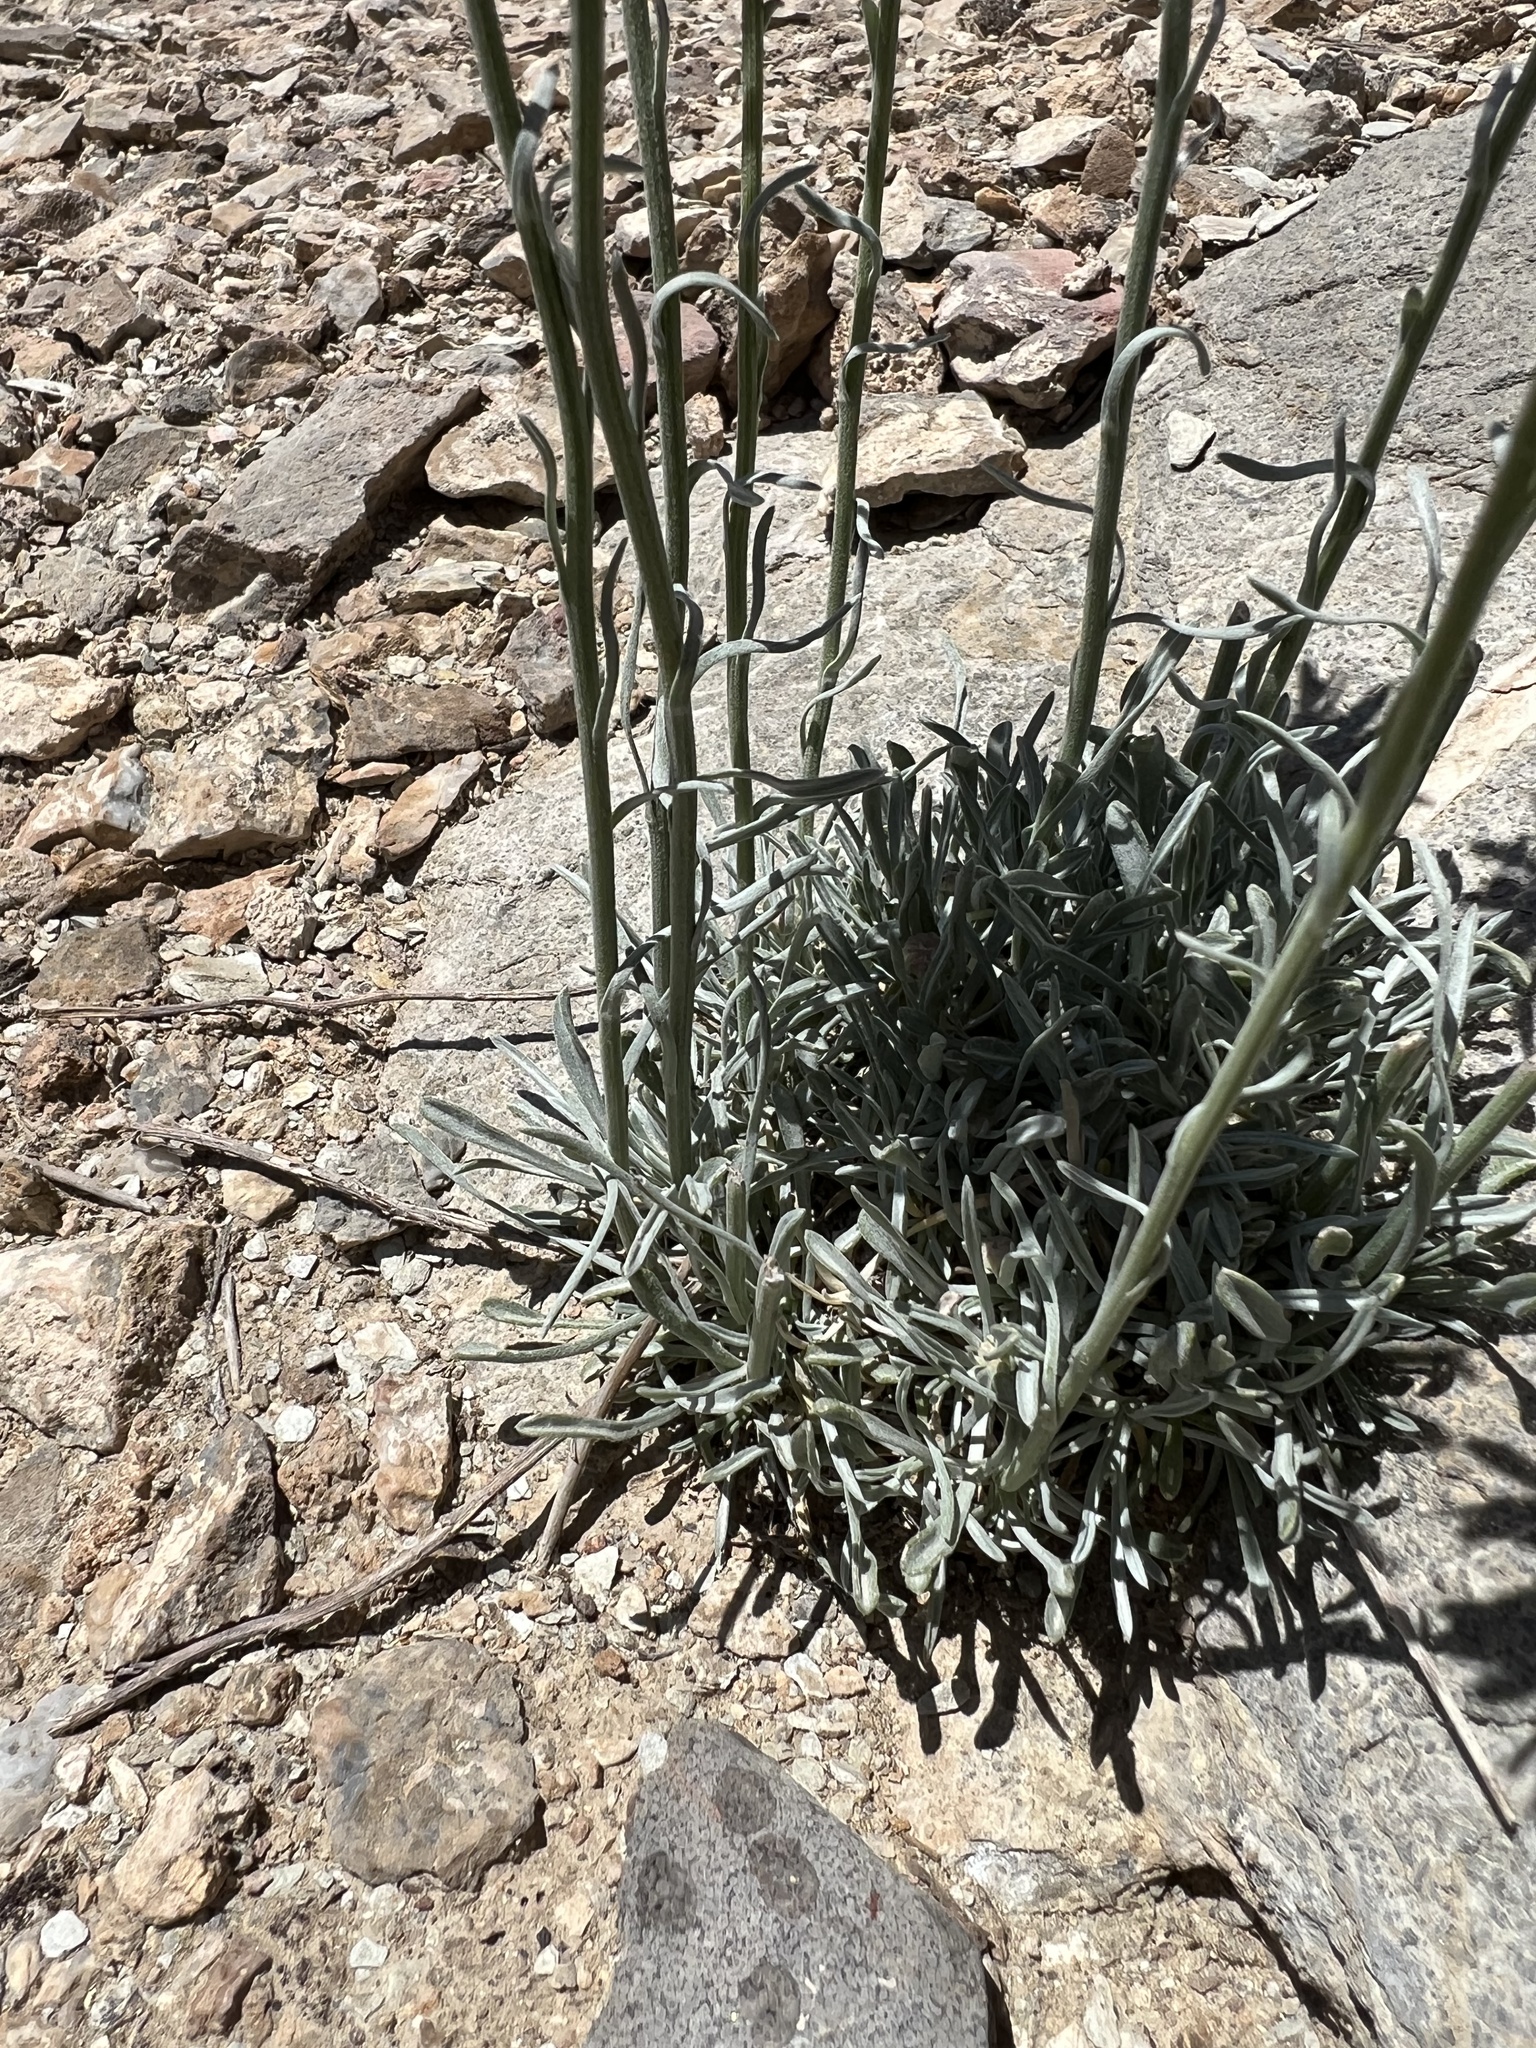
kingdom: Plantae
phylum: Tracheophyta
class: Magnoliopsida
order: Asterales
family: Asteraceae
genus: Erigeron
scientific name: Erigeron argentatus
